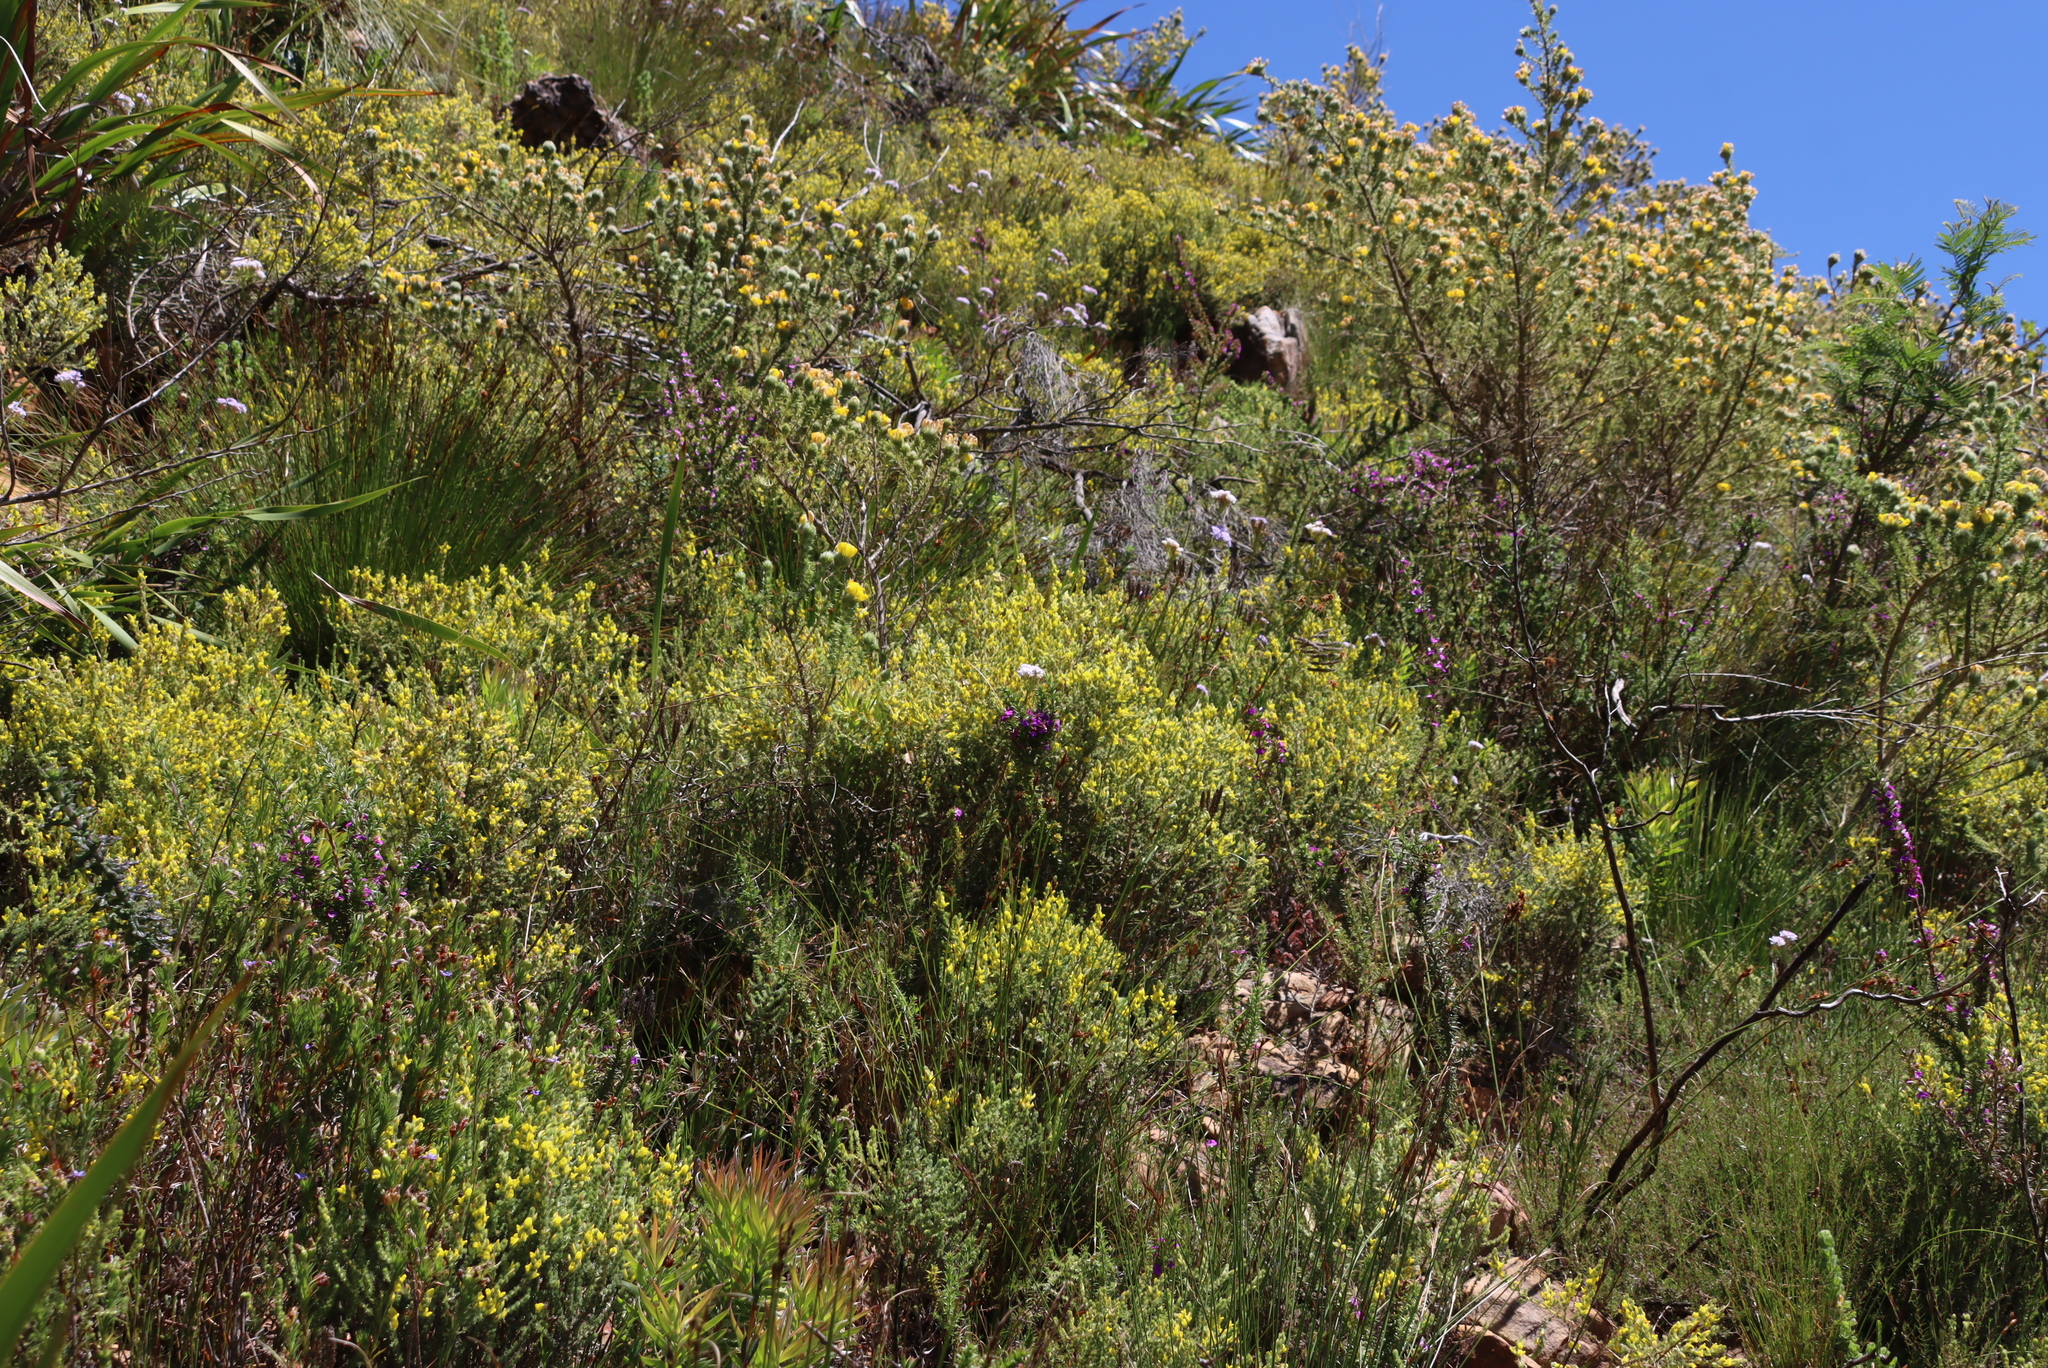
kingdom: Plantae
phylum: Tracheophyta
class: Magnoliopsida
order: Fabales
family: Fabaceae
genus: Aspalathus
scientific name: Aspalathus ericifolia
